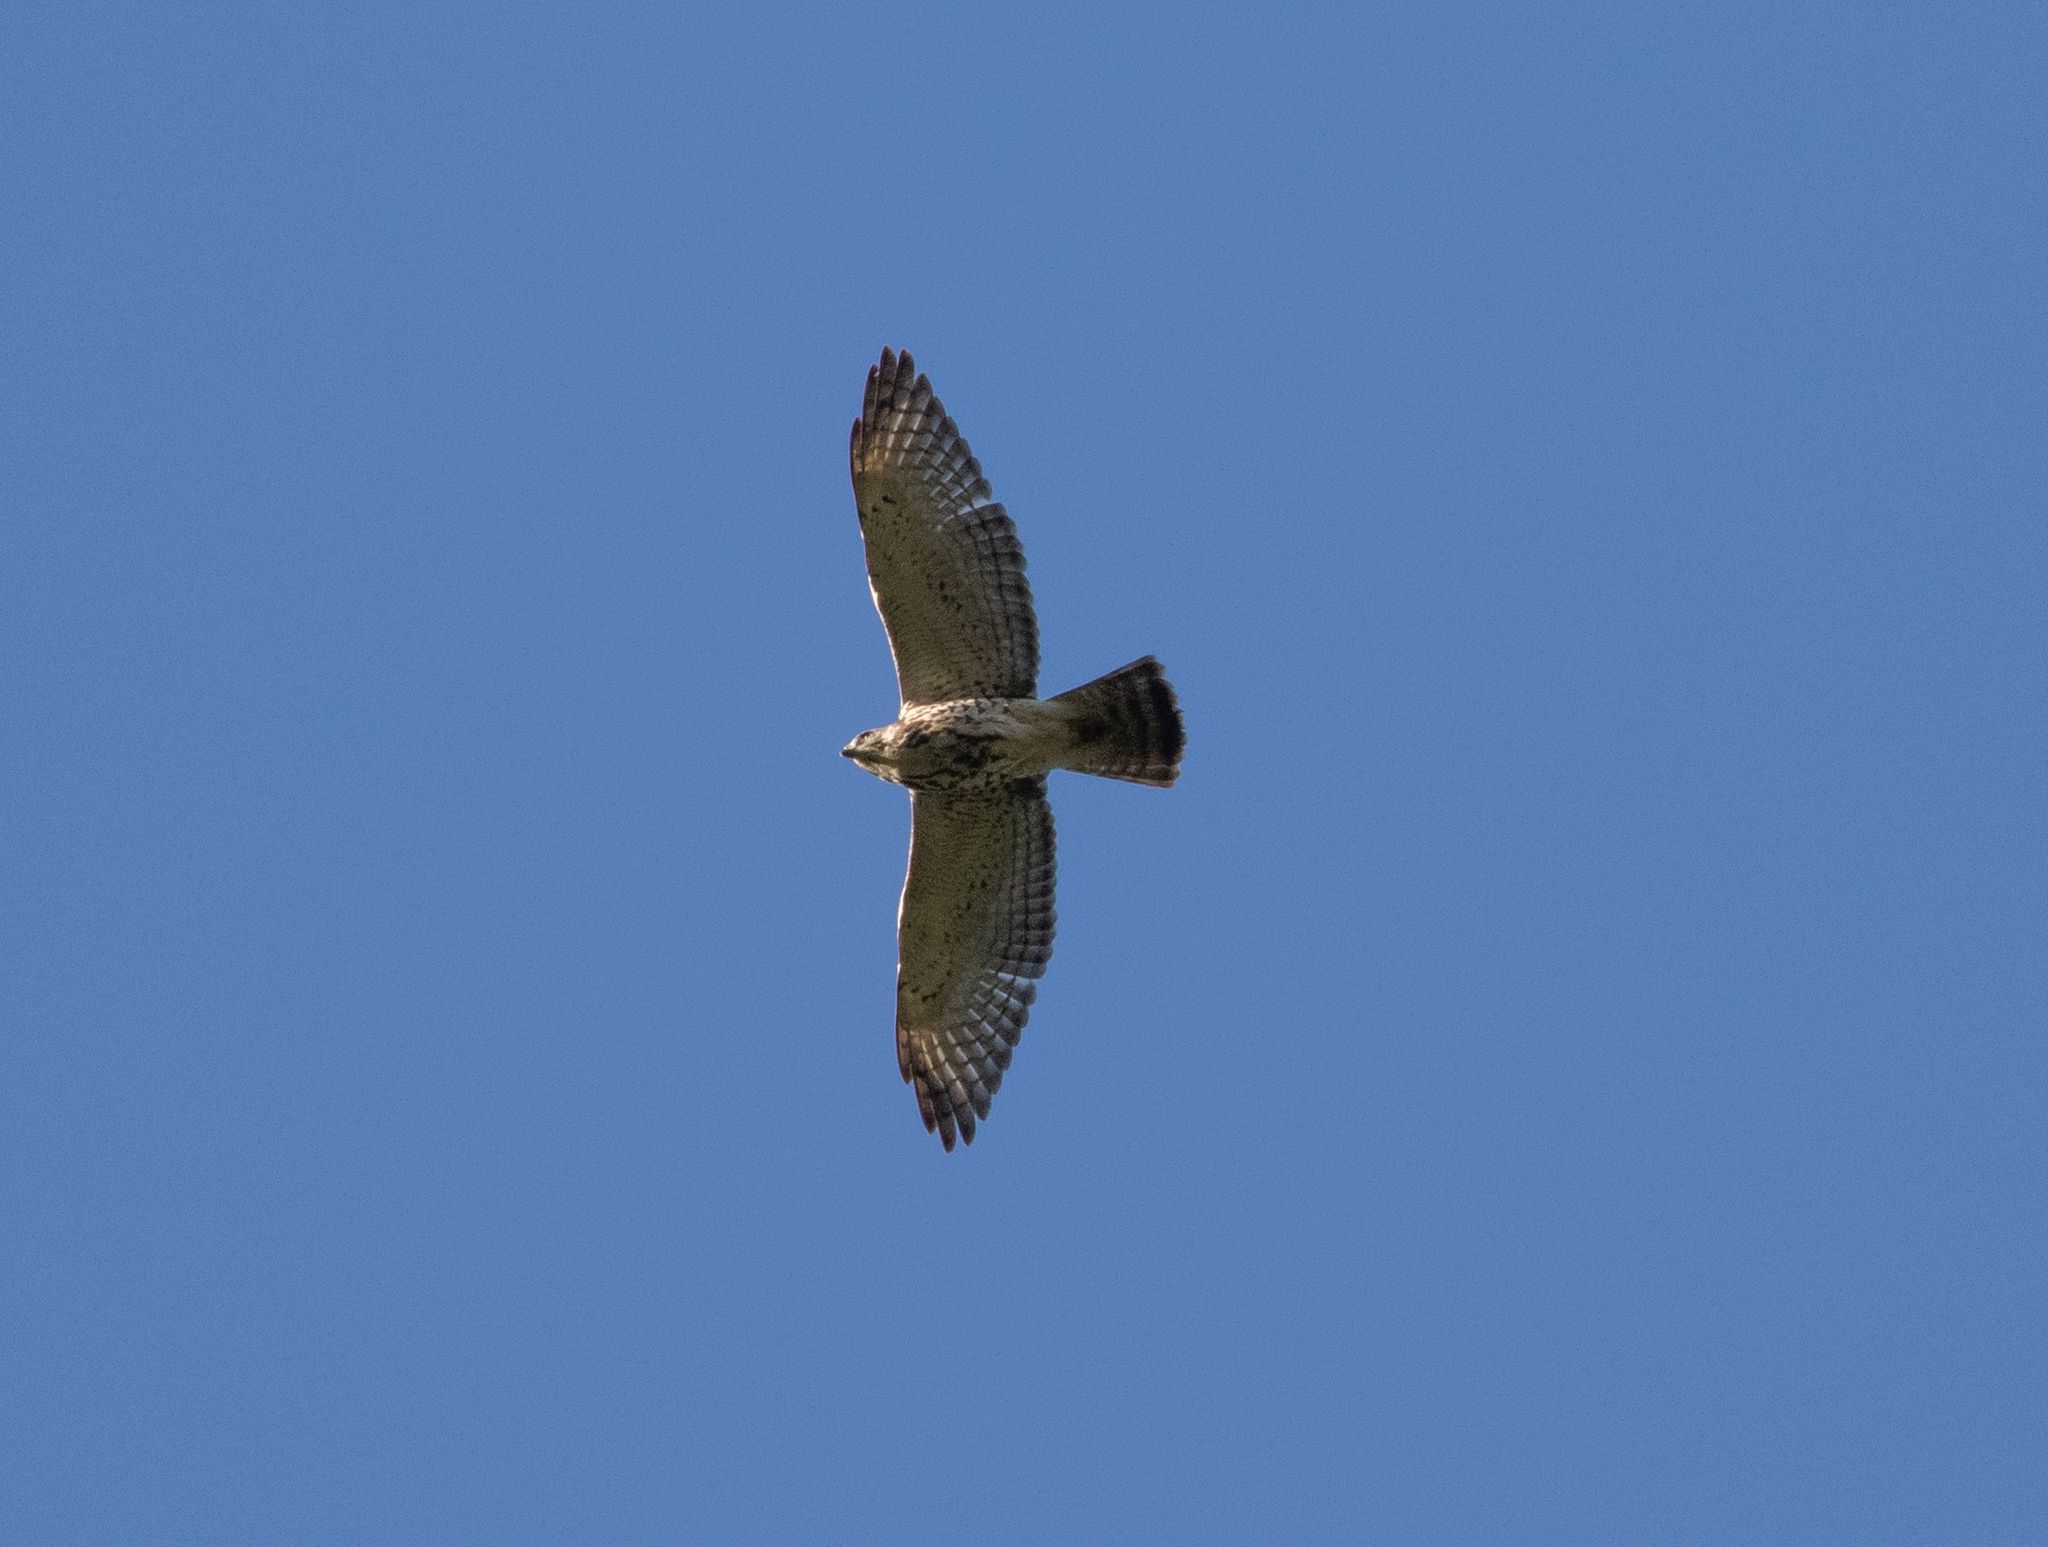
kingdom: Animalia
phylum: Chordata
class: Aves
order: Accipitriformes
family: Accipitridae
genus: Buteo
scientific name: Buteo platypterus
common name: Broad-winged hawk
